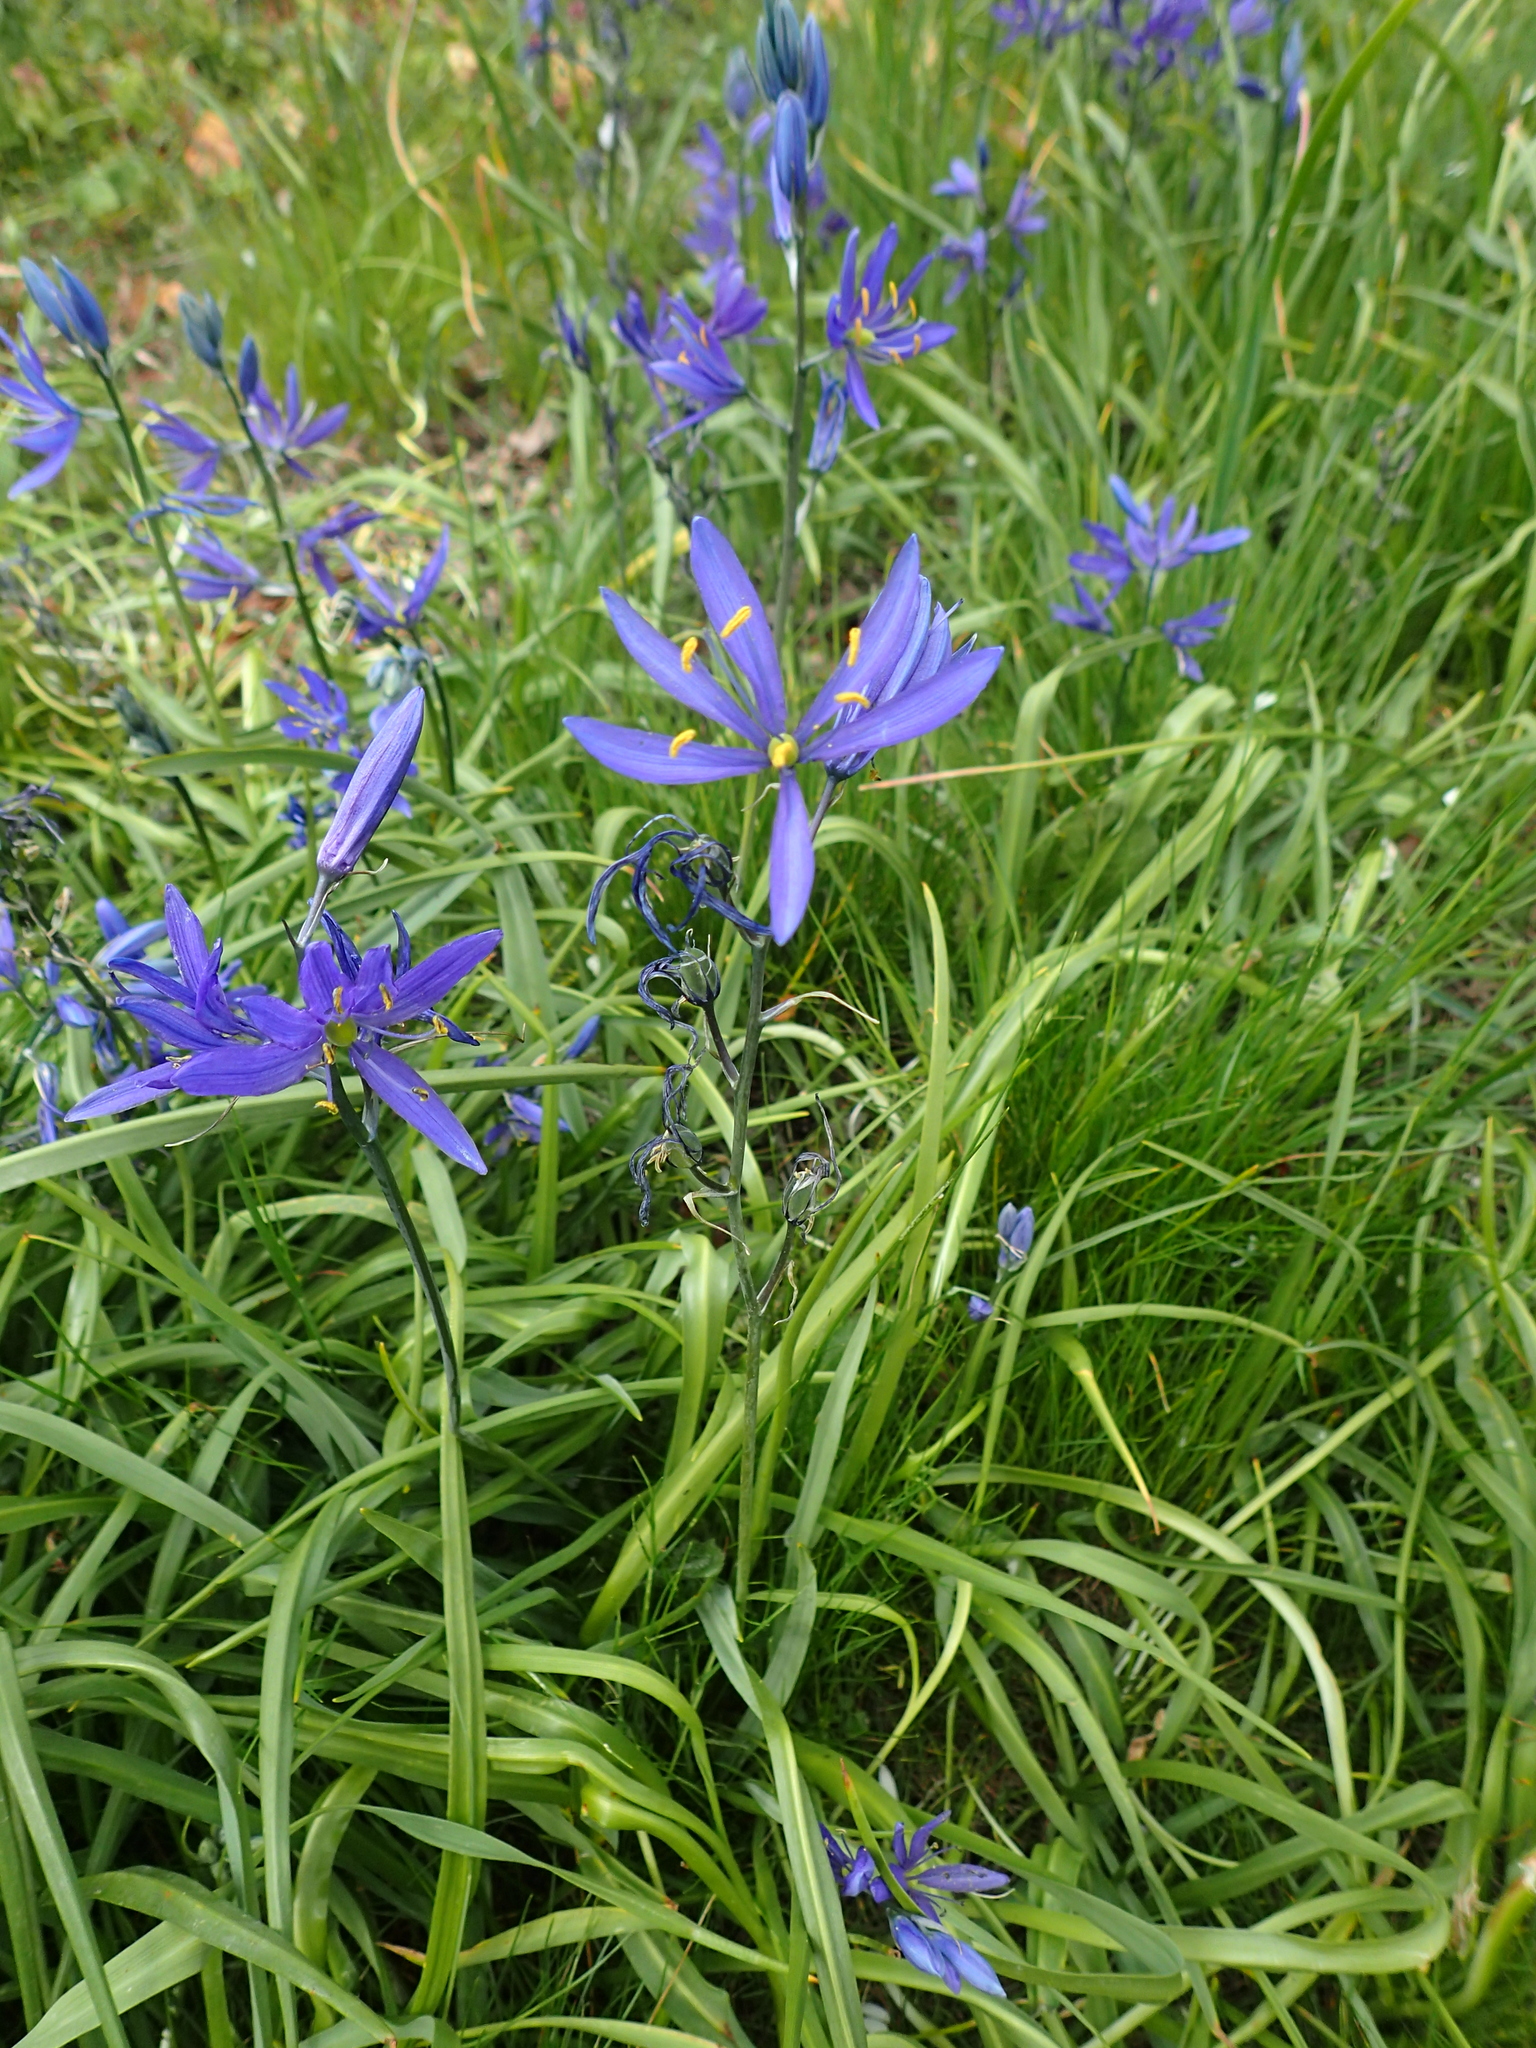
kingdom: Plantae
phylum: Tracheophyta
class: Liliopsida
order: Asparagales
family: Asparagaceae
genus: Camassia
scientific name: Camassia quamash
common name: Common camas
